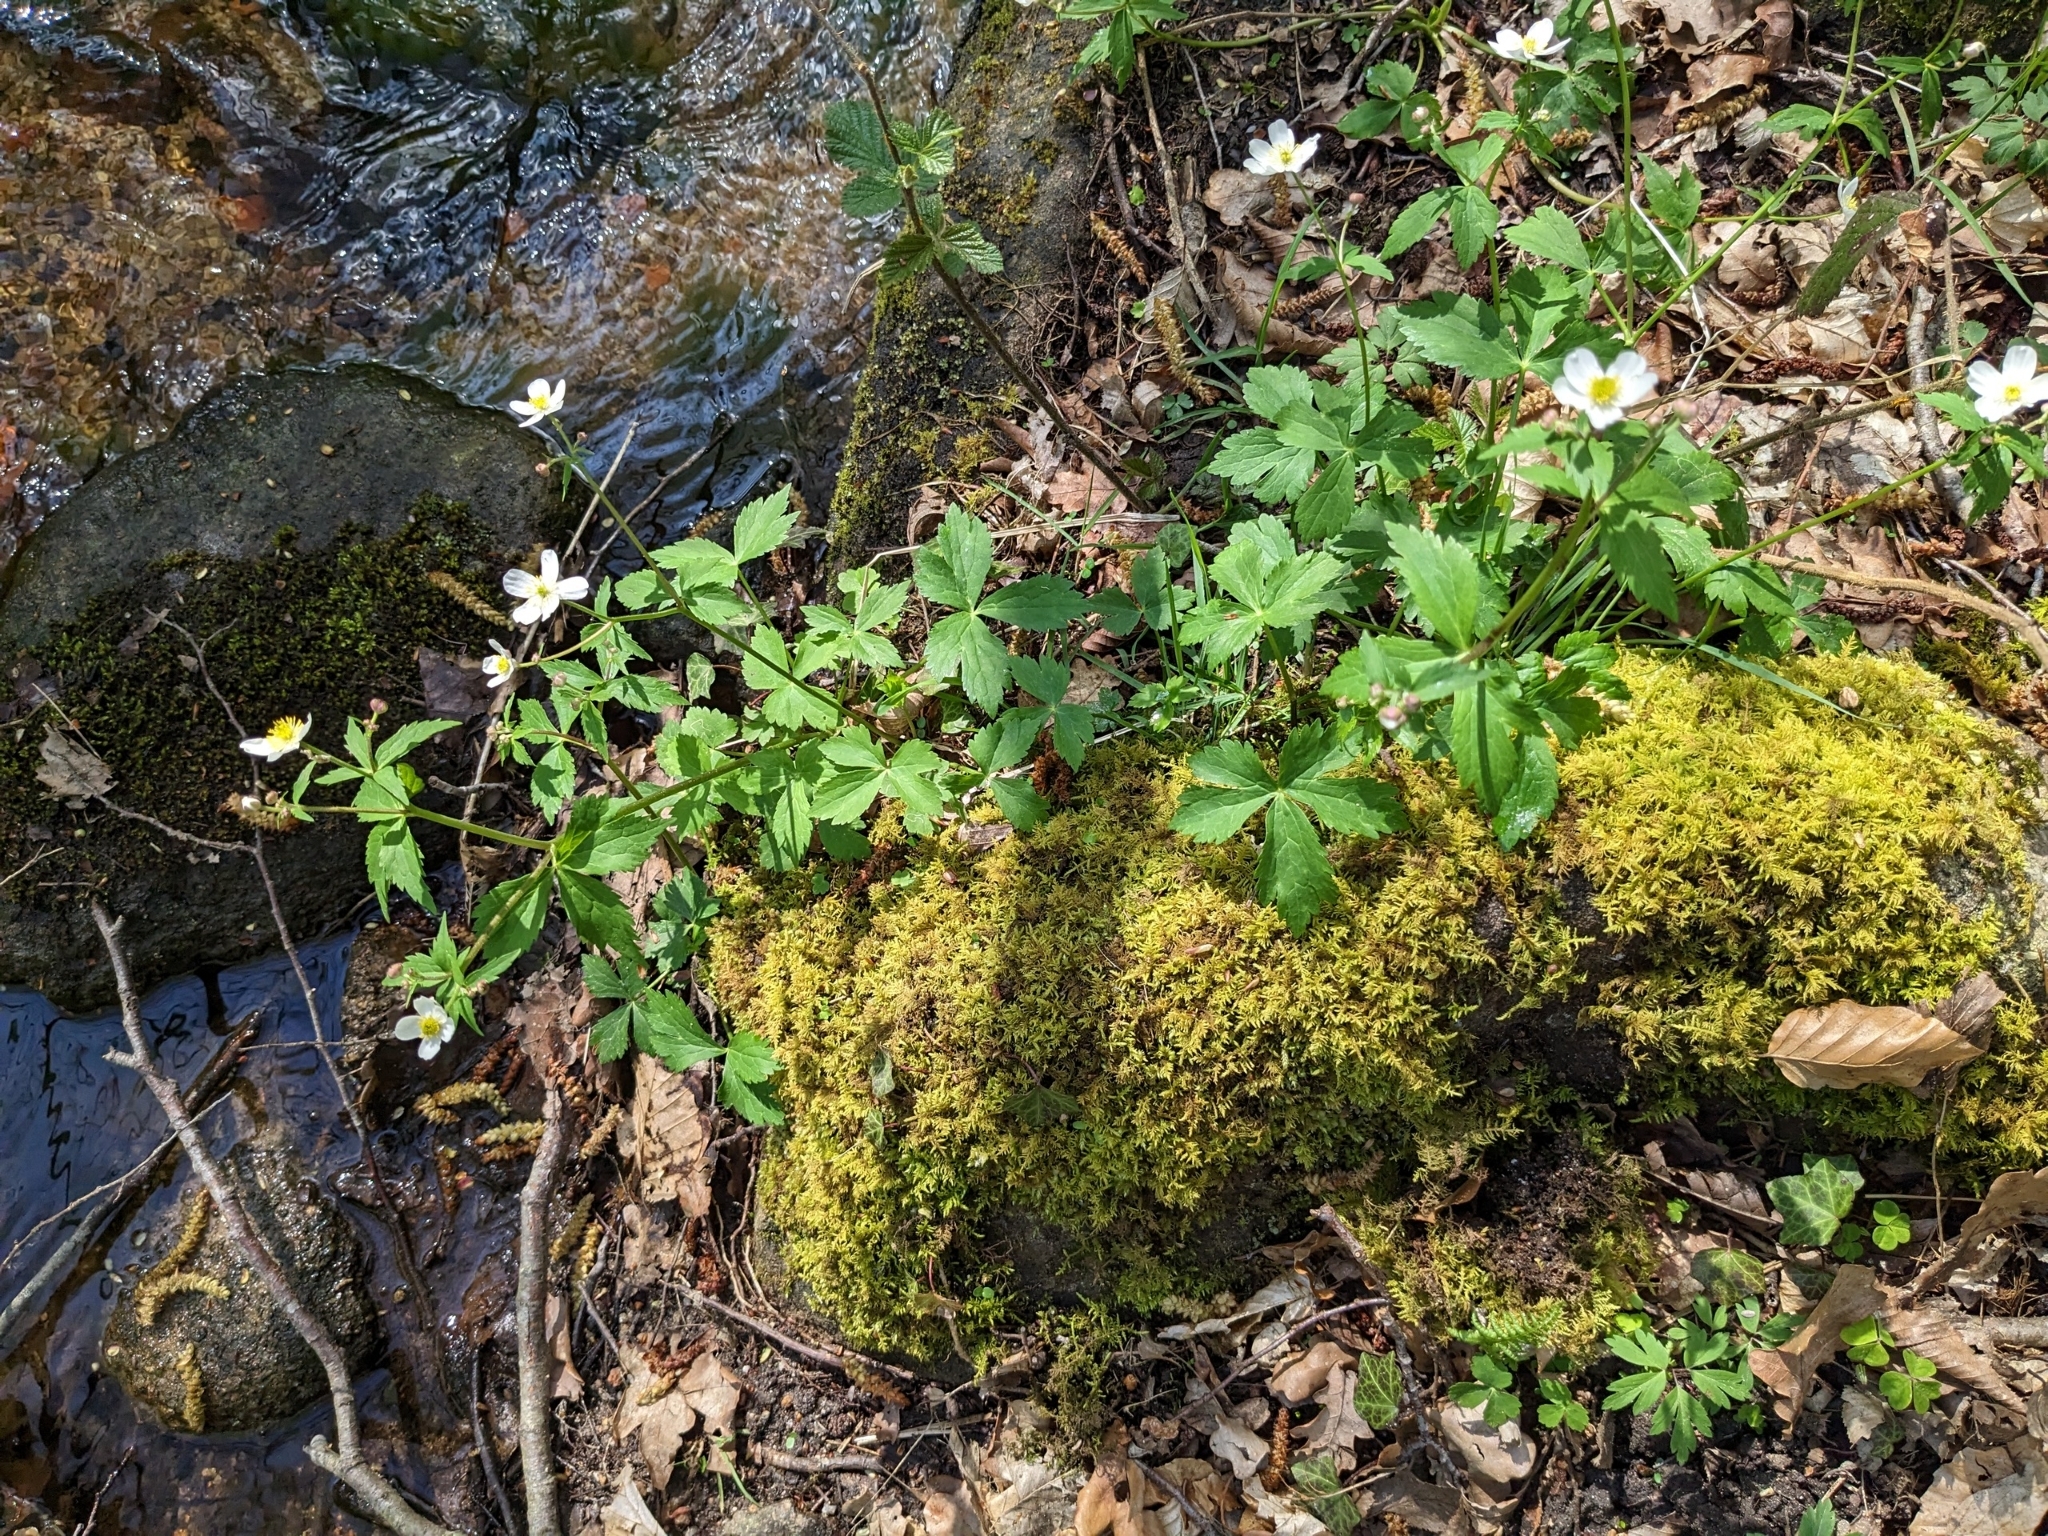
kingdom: Plantae
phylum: Tracheophyta
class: Magnoliopsida
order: Ranunculales
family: Ranunculaceae
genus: Ranunculus
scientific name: Ranunculus aconitifolius
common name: Aconite-leaved buttercup
